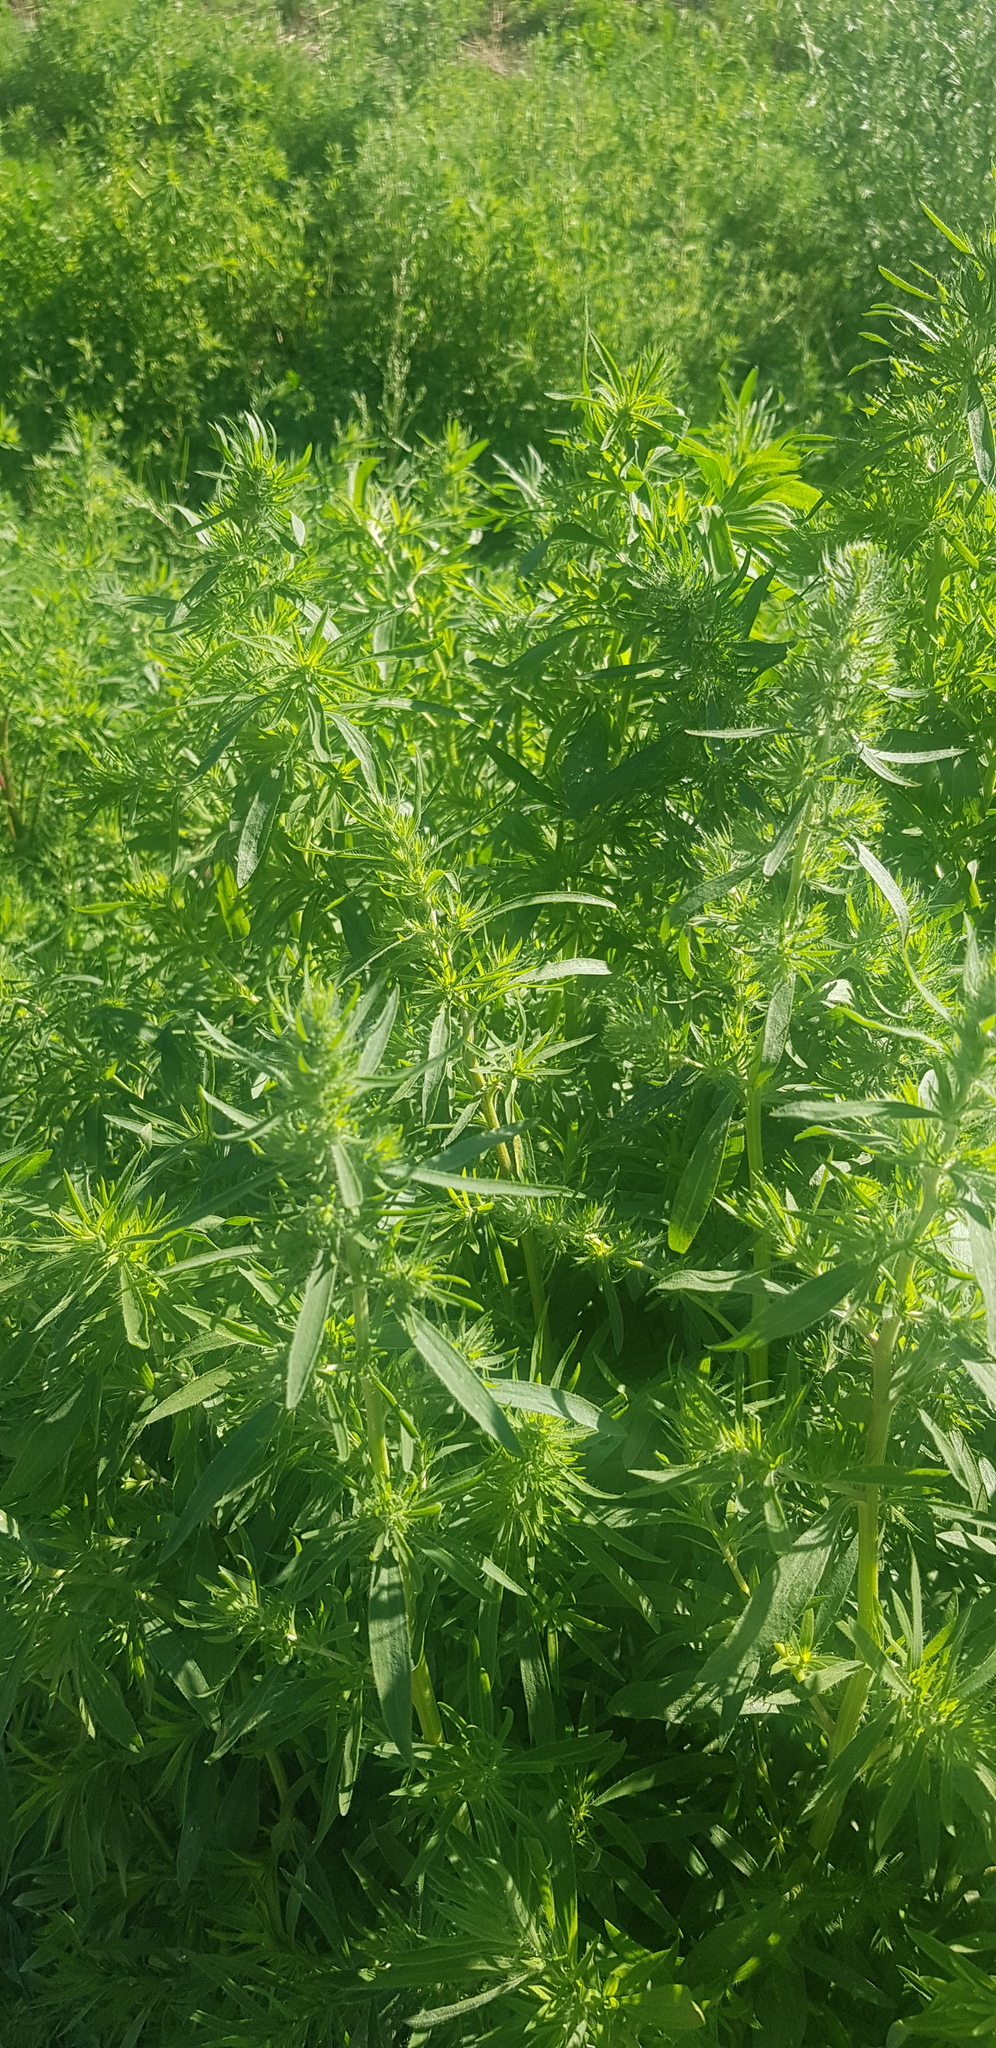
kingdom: Plantae
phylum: Tracheophyta
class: Magnoliopsida
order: Caryophyllales
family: Amaranthaceae
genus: Bassia
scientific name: Bassia scoparia
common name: Belvedere
